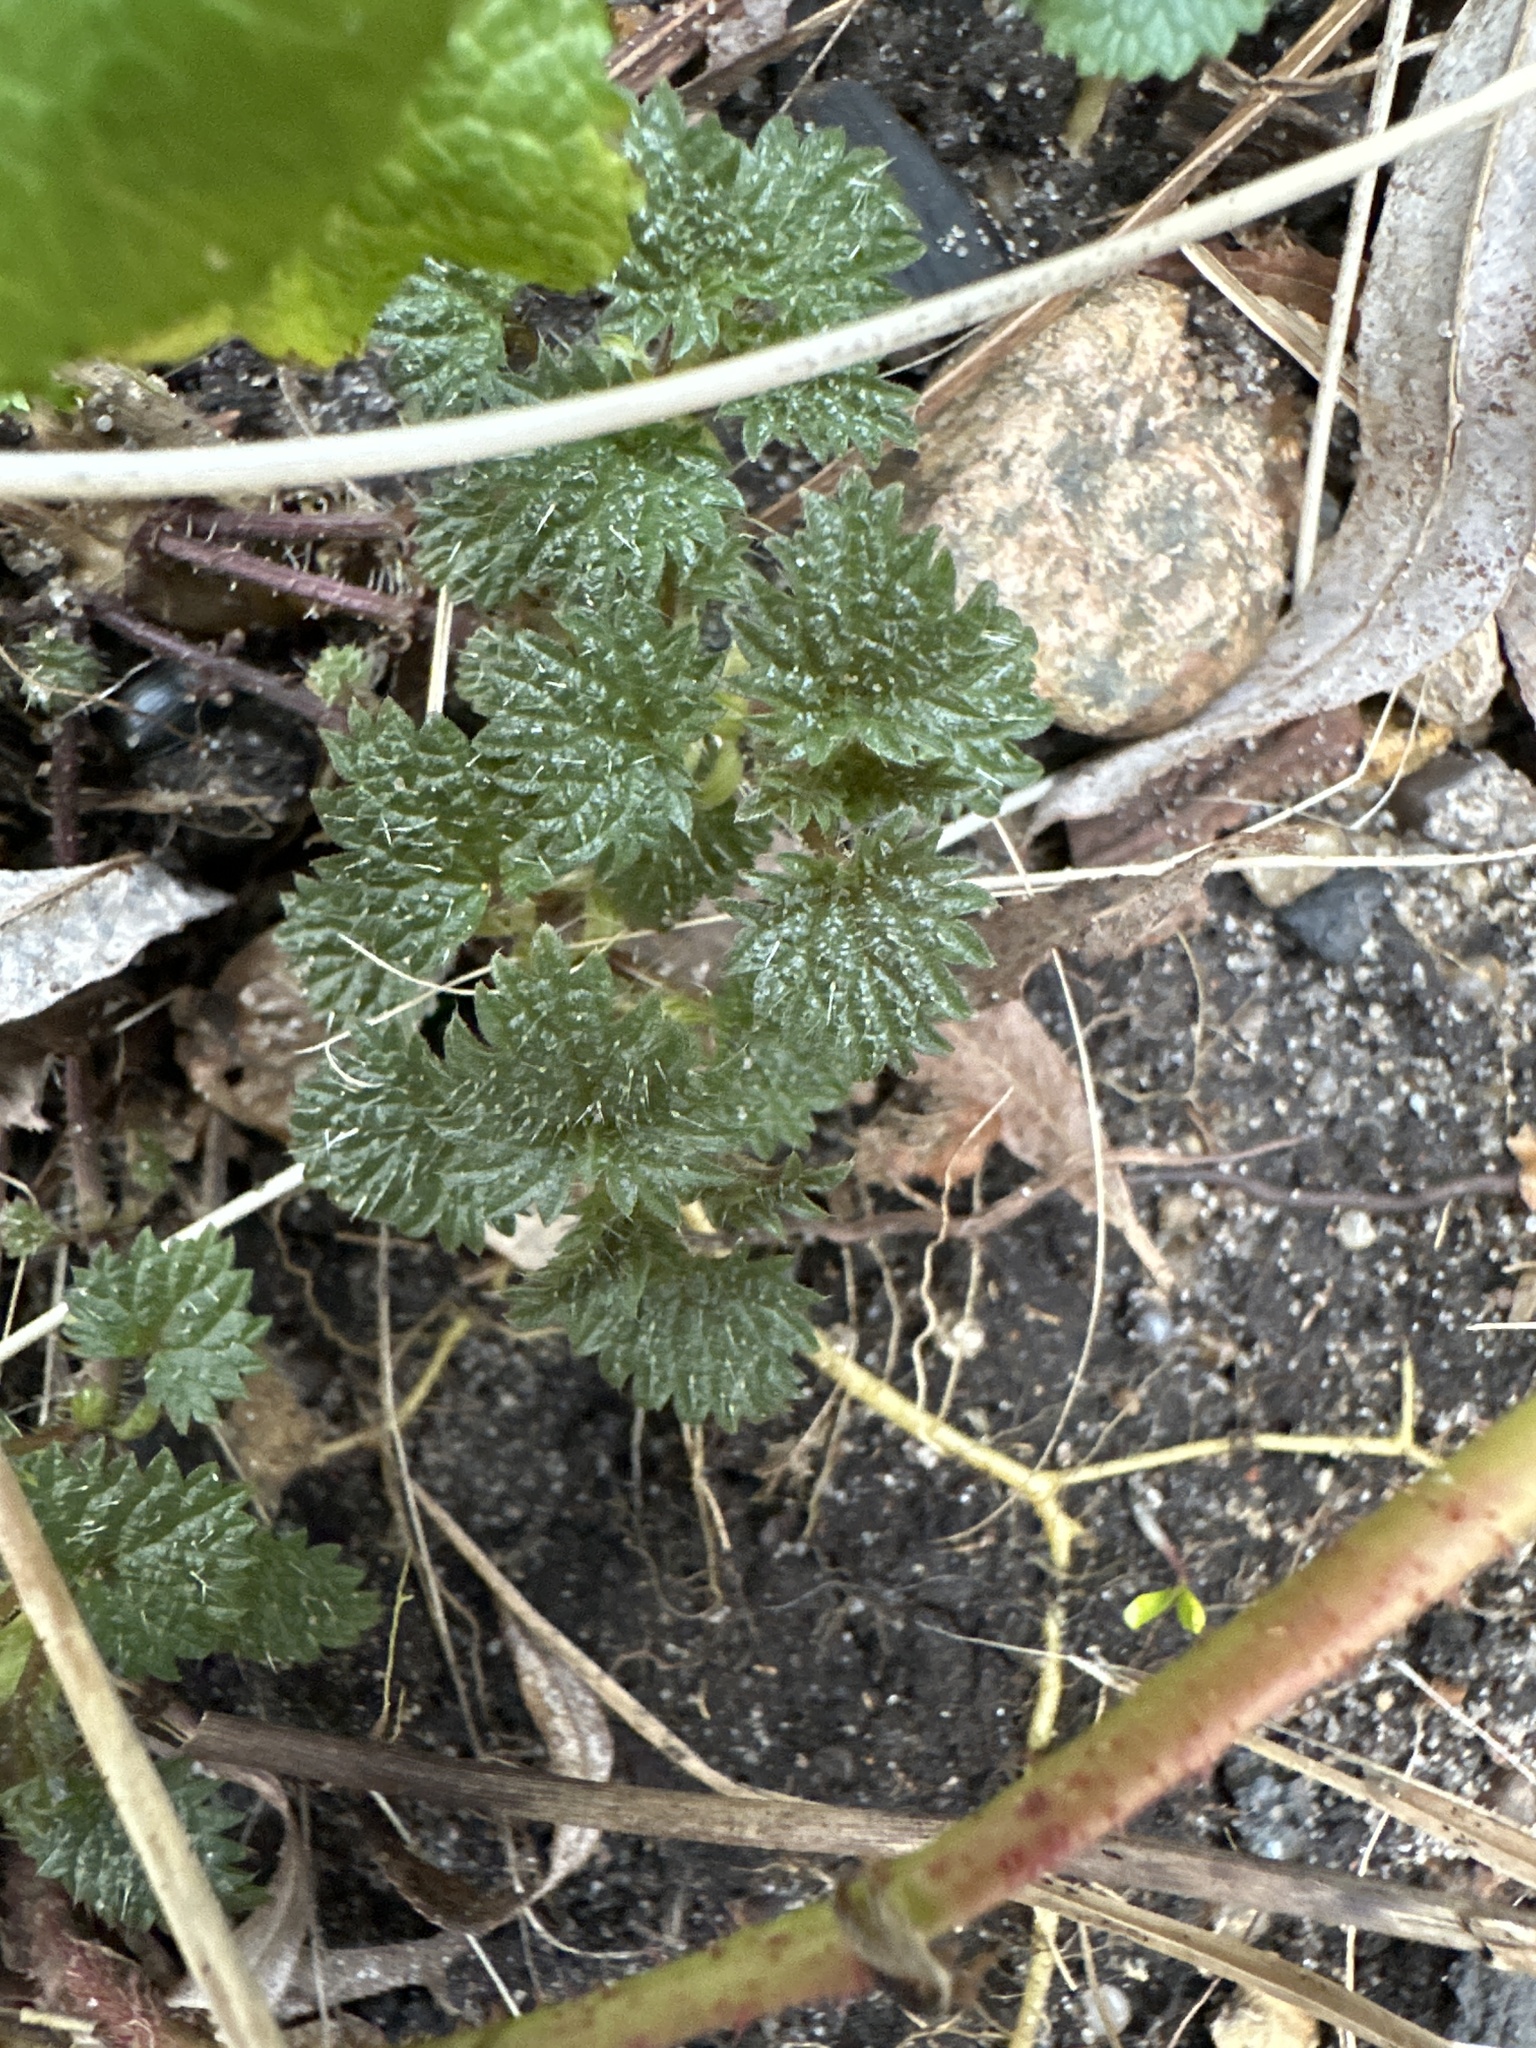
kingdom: Plantae
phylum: Tracheophyta
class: Magnoliopsida
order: Rosales
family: Urticaceae
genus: Urtica
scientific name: Urtica dioica
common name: Common nettle
